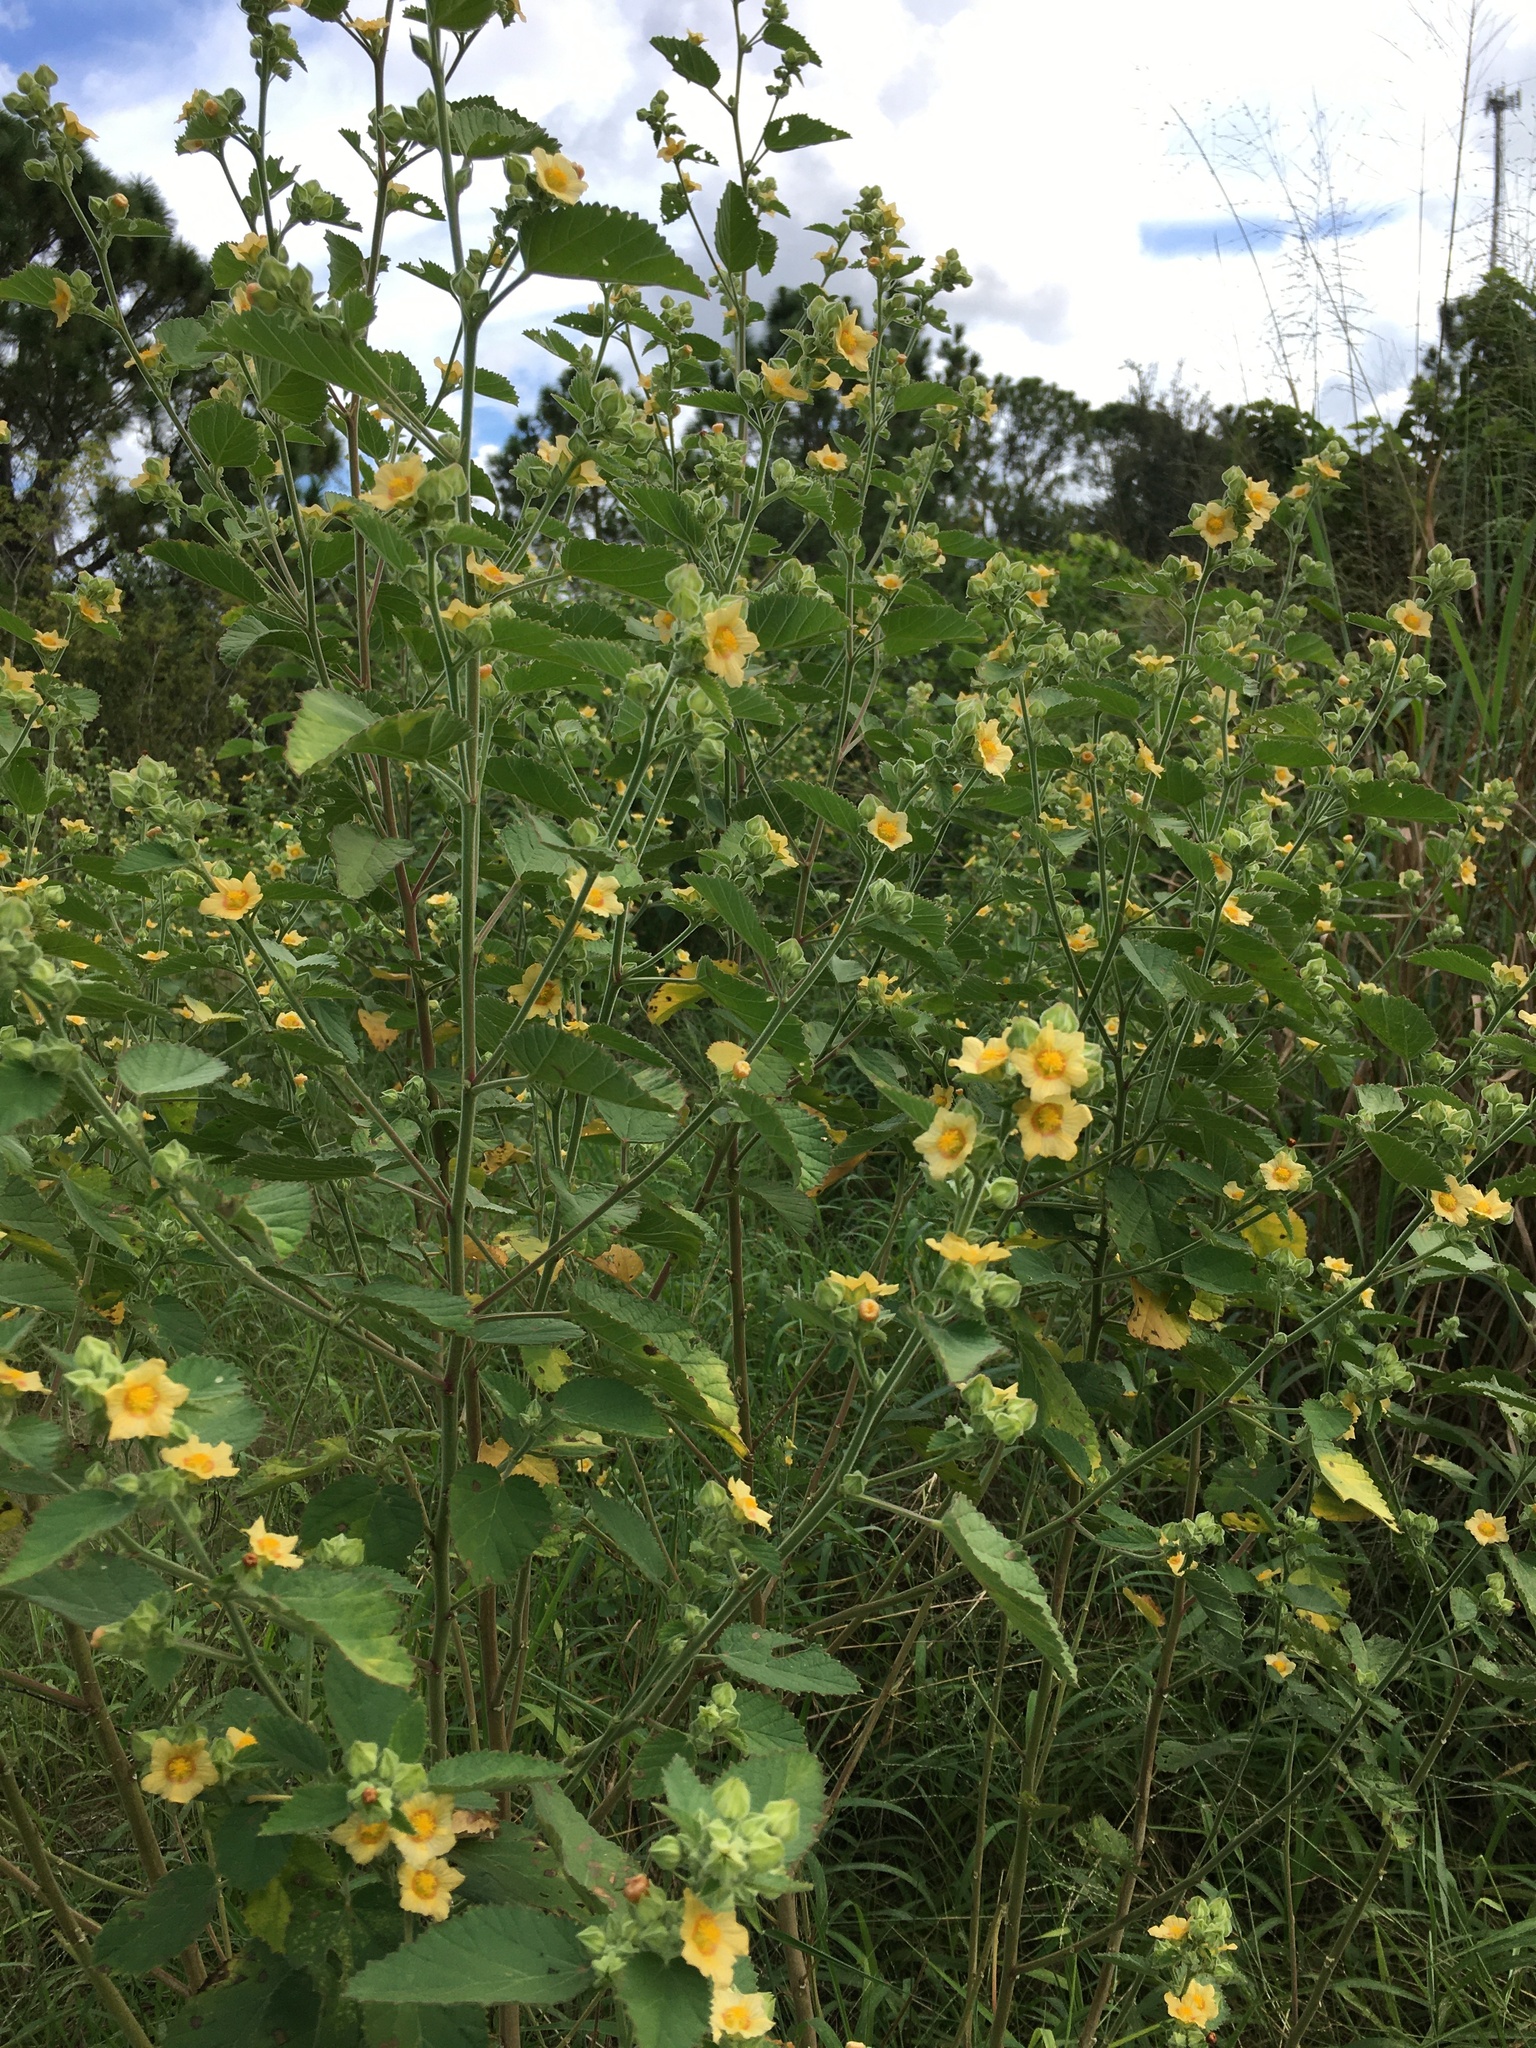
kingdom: Plantae
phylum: Tracheophyta
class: Magnoliopsida
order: Malvales
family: Malvaceae
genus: Sida
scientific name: Sida cordifolia
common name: Ilima
